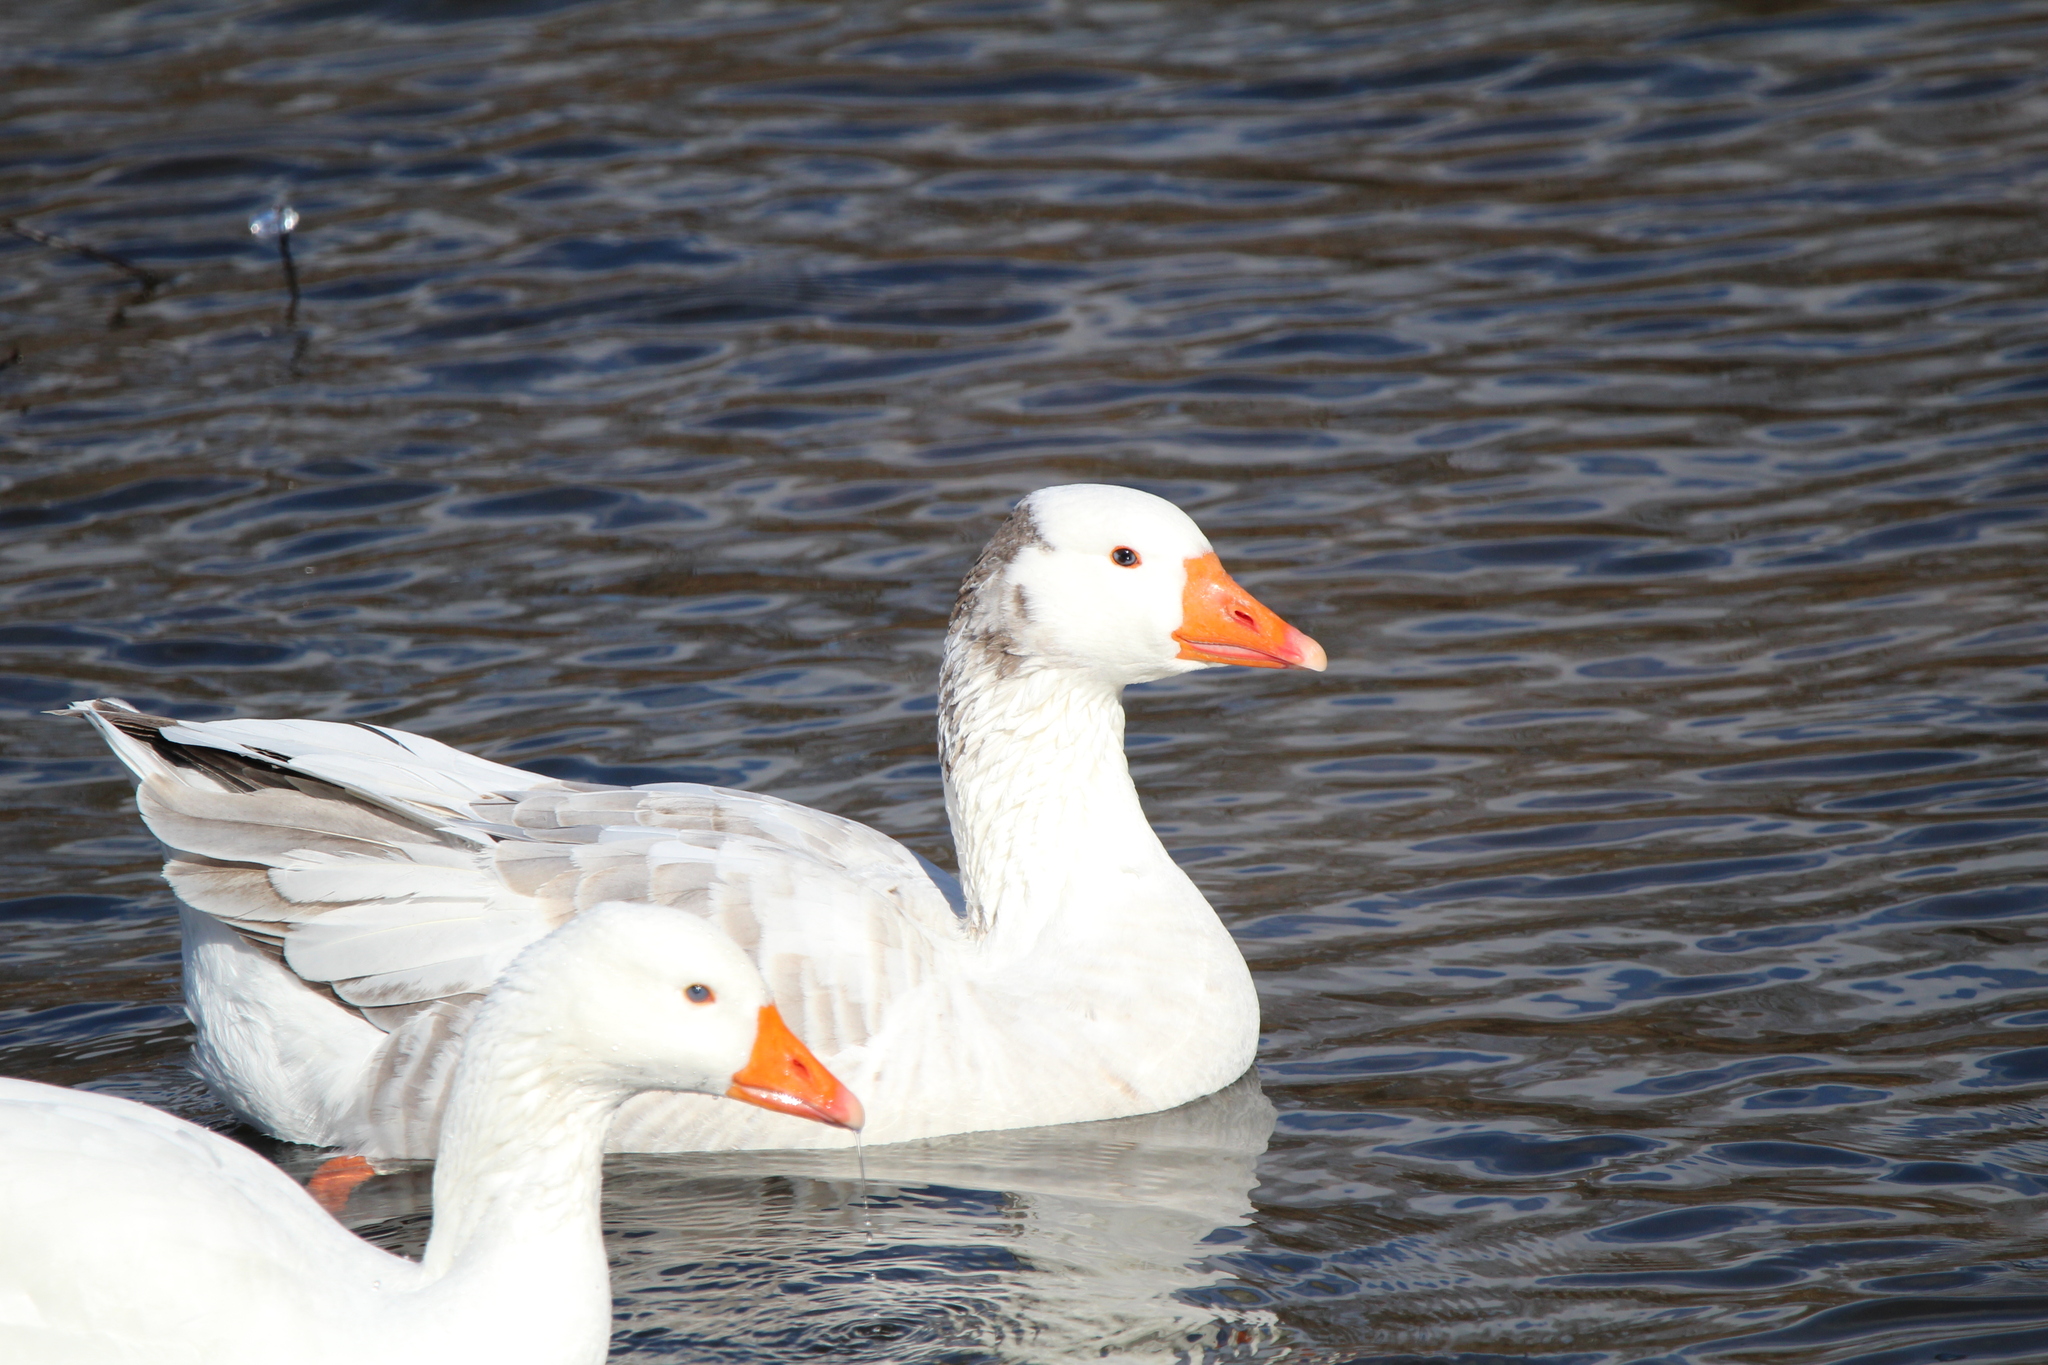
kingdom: Animalia
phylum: Chordata
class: Aves
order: Anseriformes
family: Anatidae
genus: Anser
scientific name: Anser anser
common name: Greylag goose
